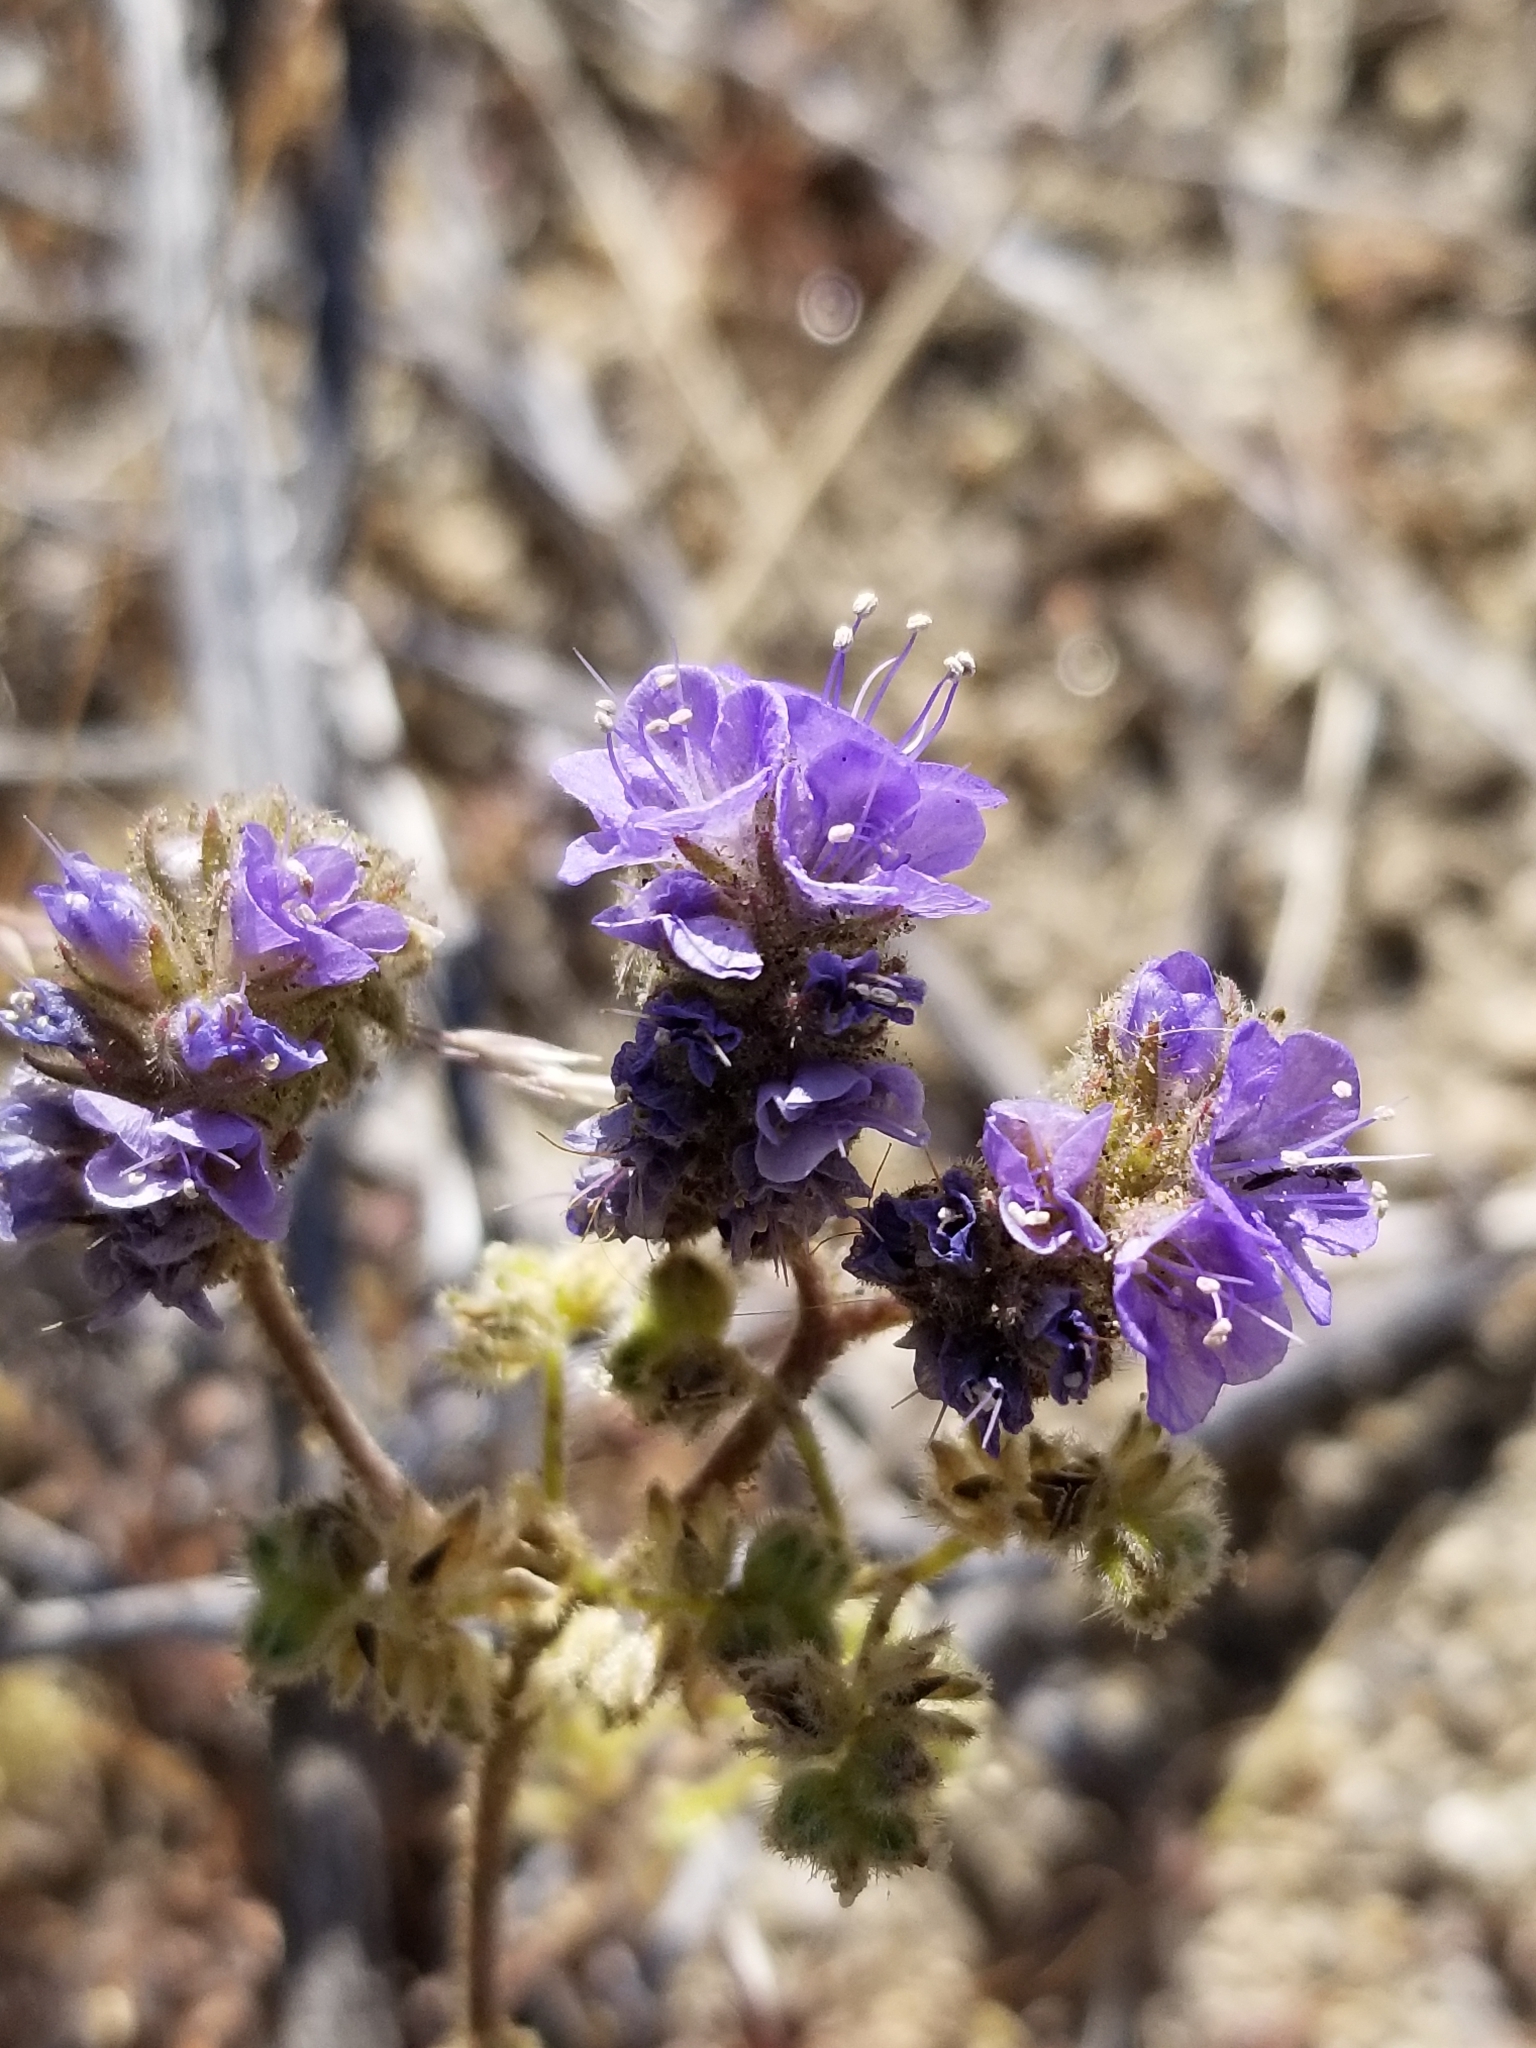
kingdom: Plantae
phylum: Tracheophyta
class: Magnoliopsida
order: Boraginales
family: Hydrophyllaceae
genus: Phacelia
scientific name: Phacelia distans
